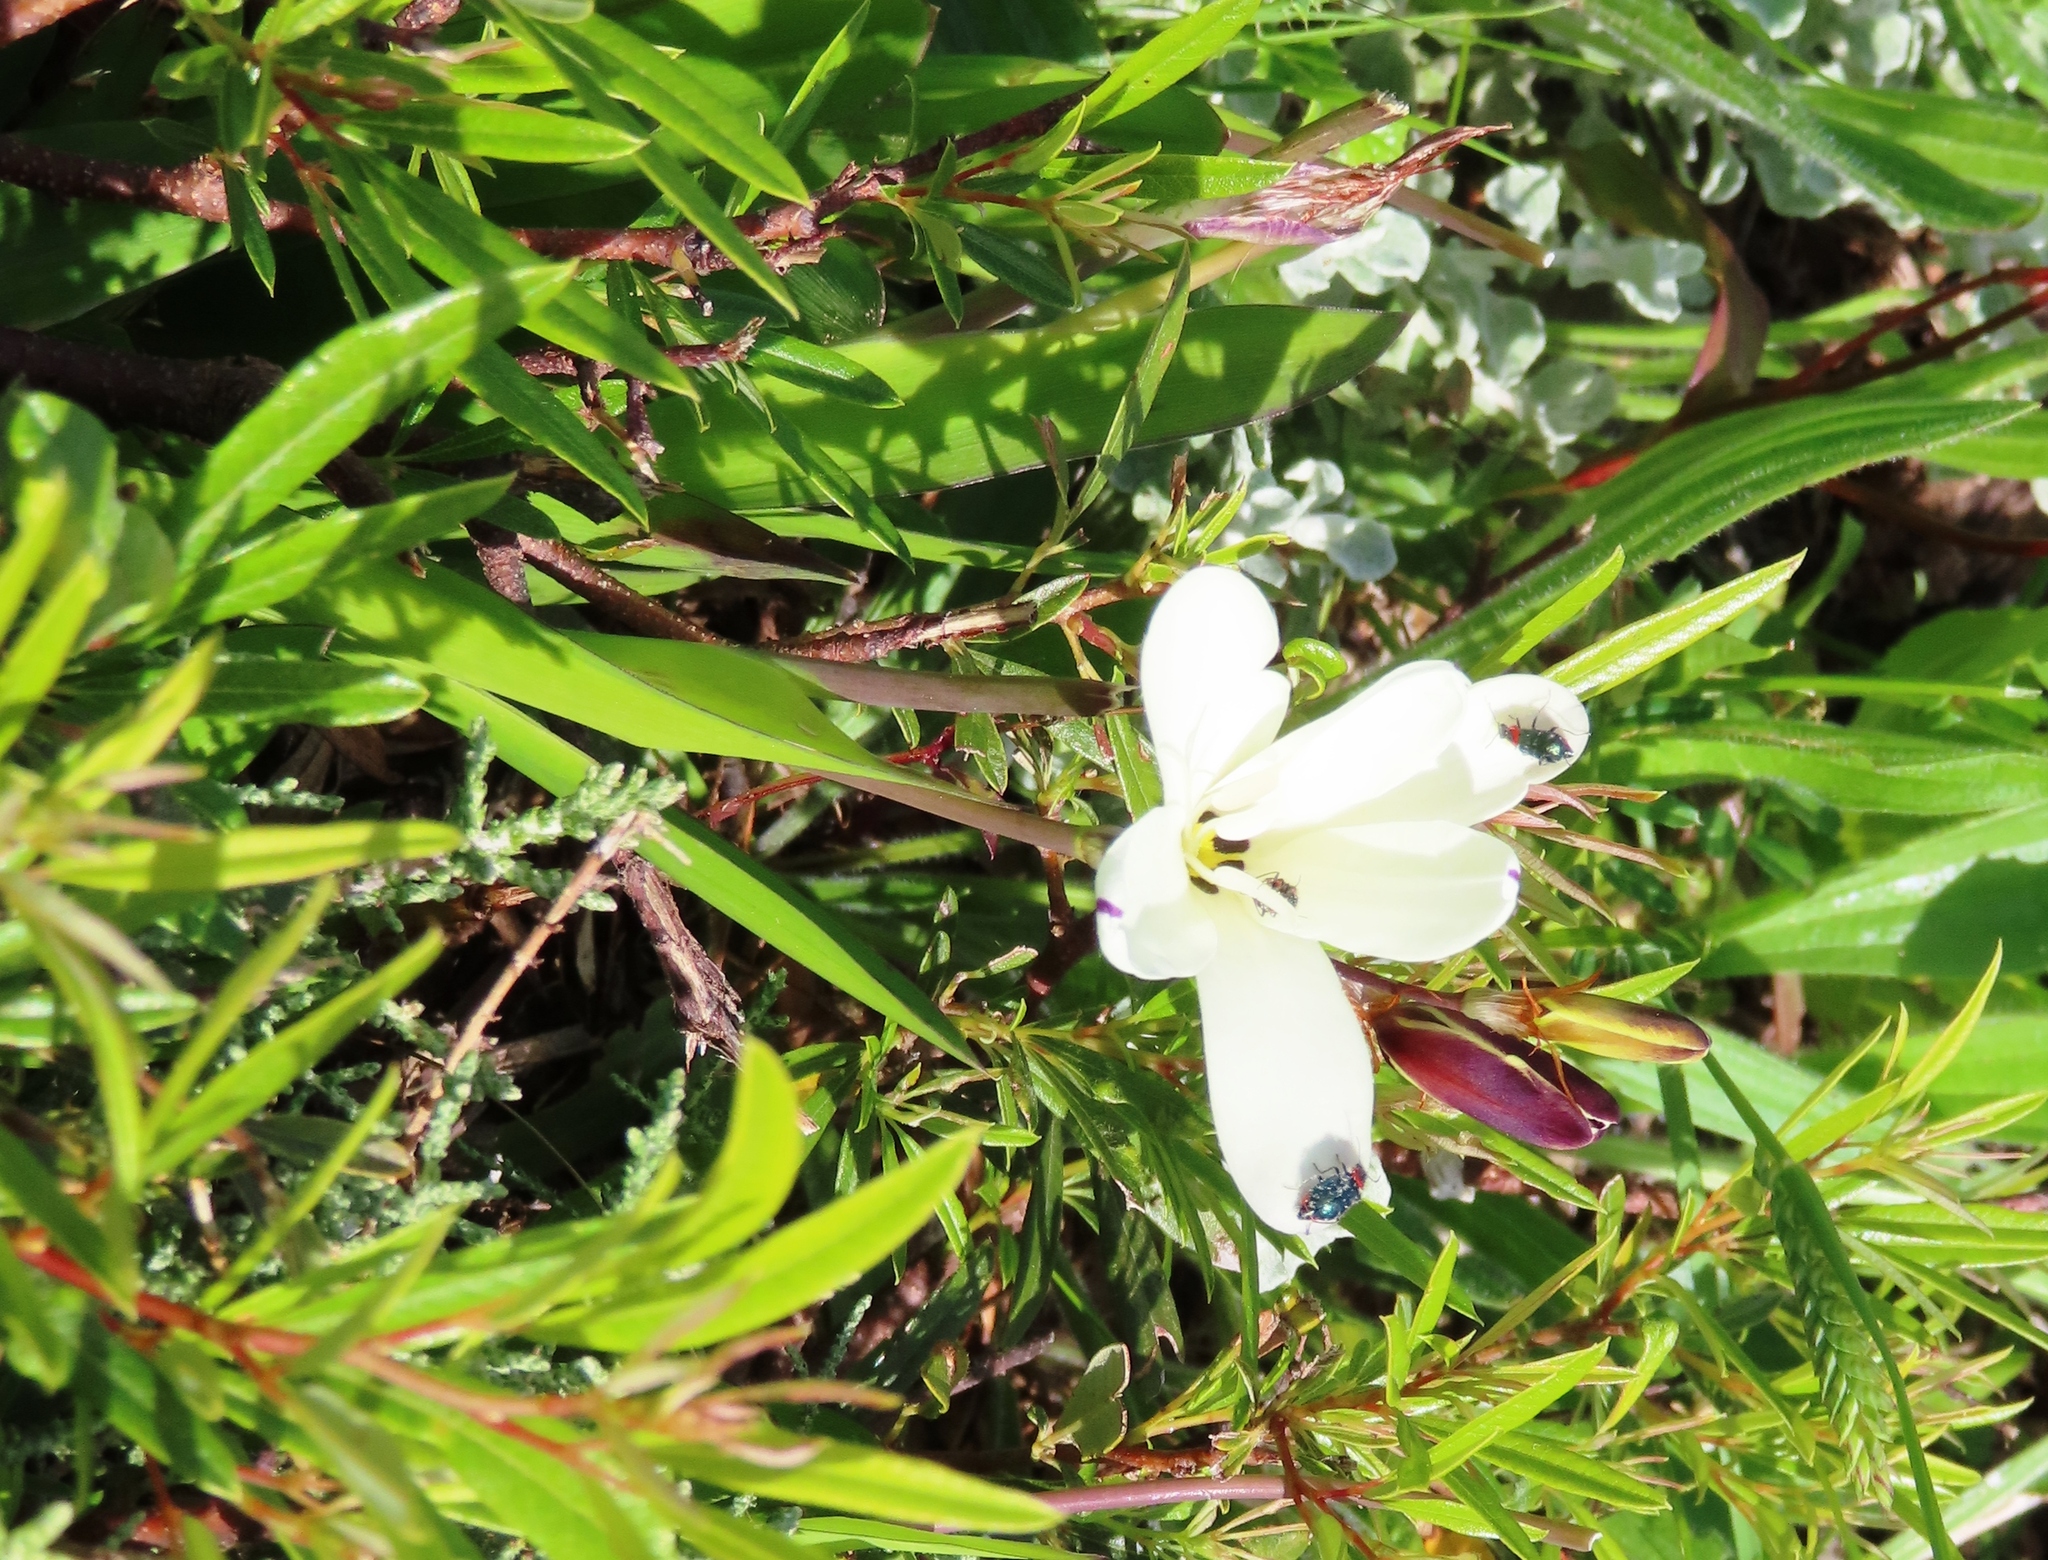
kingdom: Plantae
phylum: Tracheophyta
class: Liliopsida
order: Asparagales
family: Iridaceae
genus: Sparaxis
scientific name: Sparaxis bulbifera
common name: Harlequin-flower
